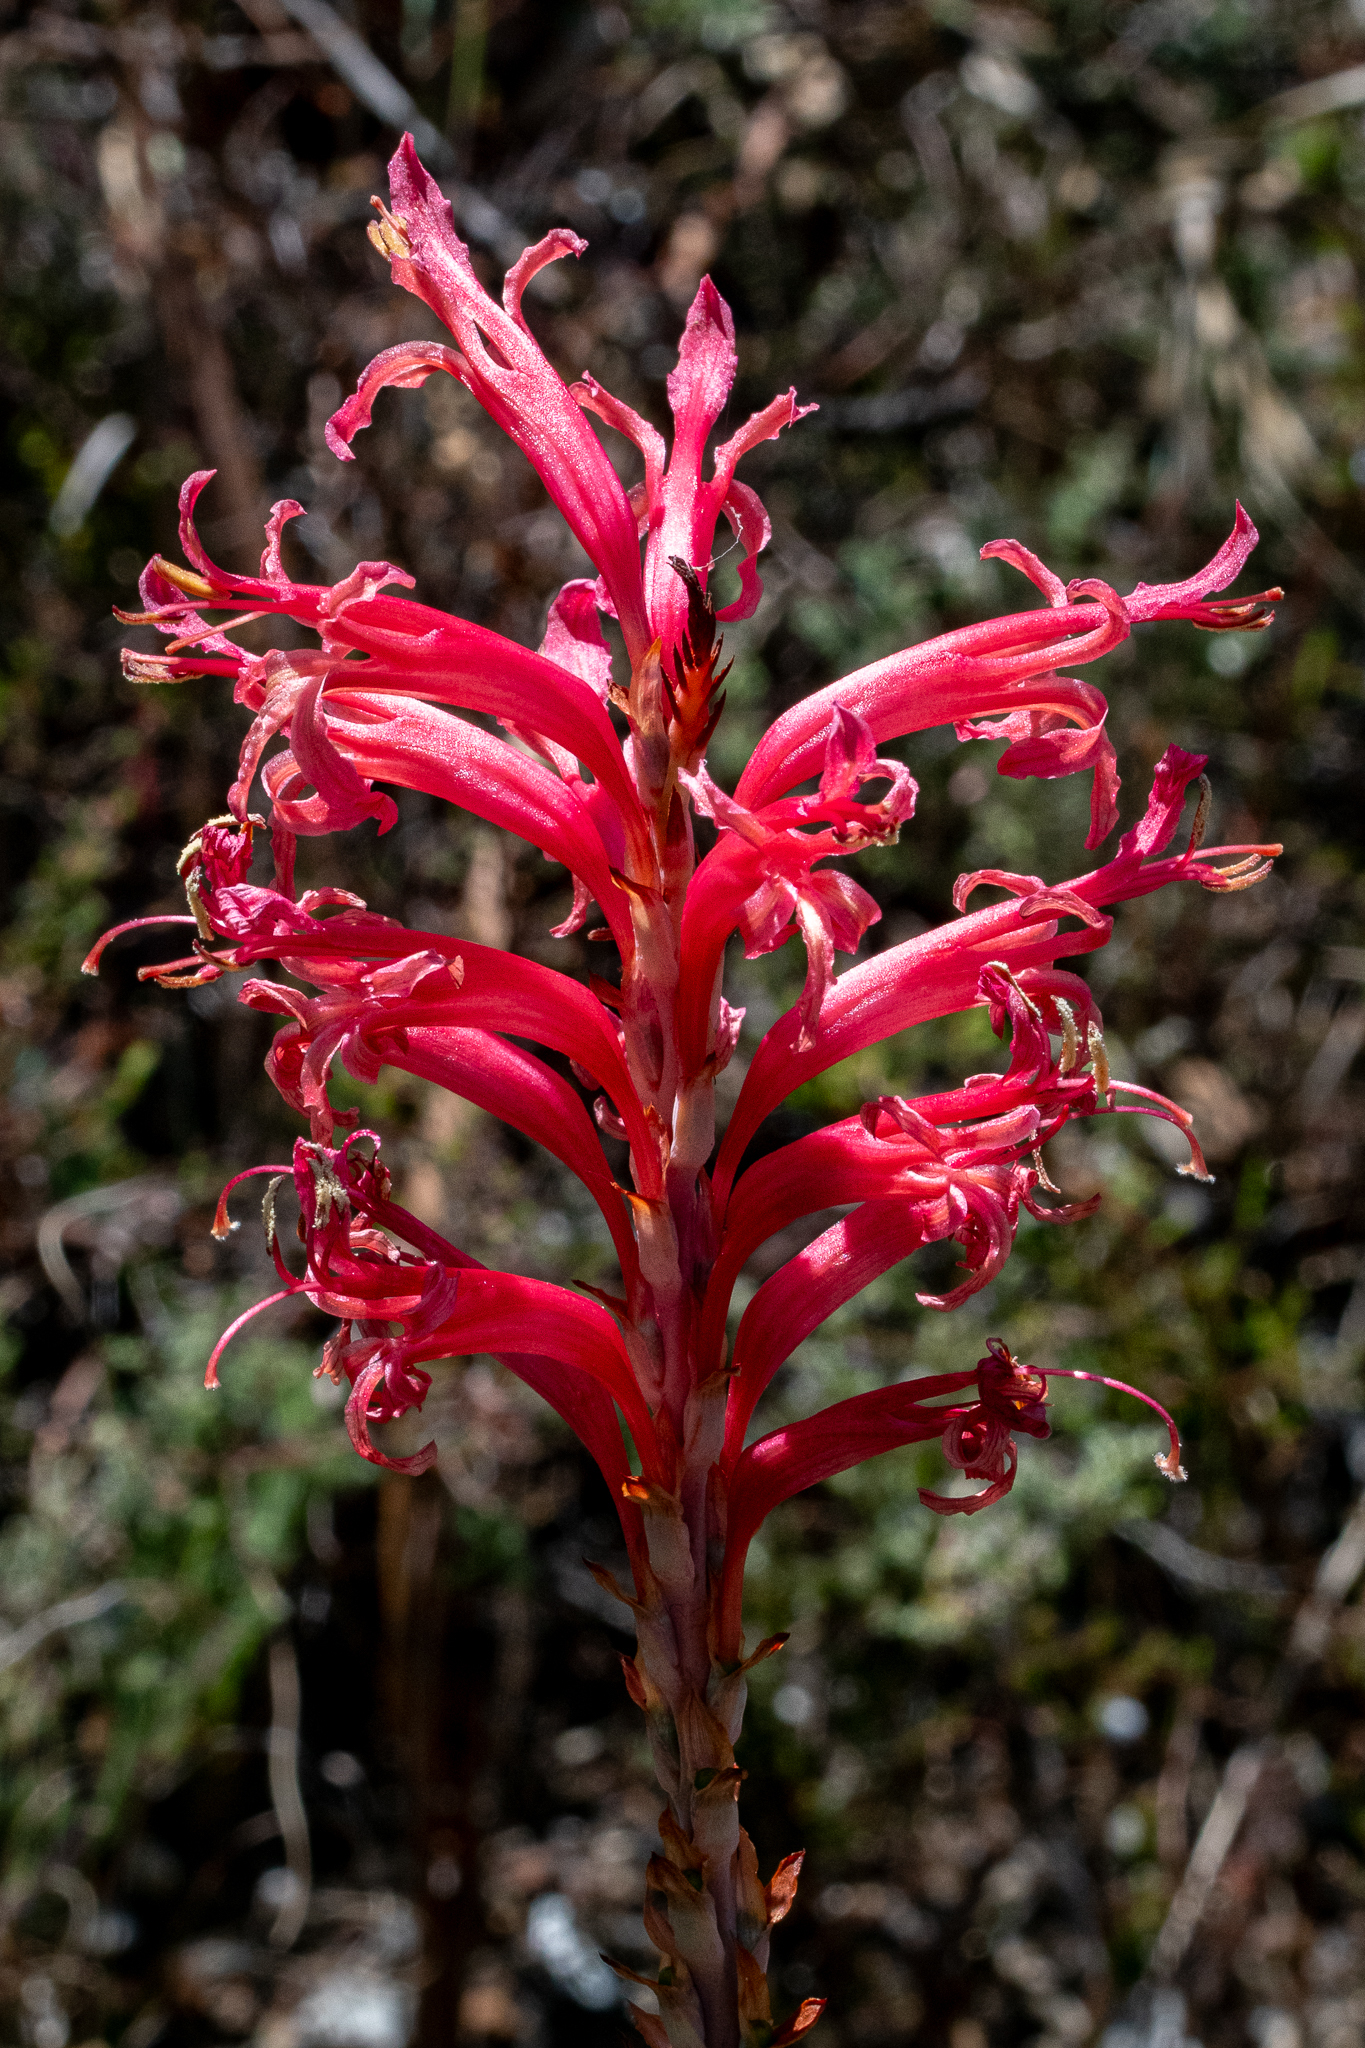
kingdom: Plantae
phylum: Tracheophyta
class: Liliopsida
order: Asparagales
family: Iridaceae
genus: Tritoniopsis
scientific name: Tritoniopsis antholyza
